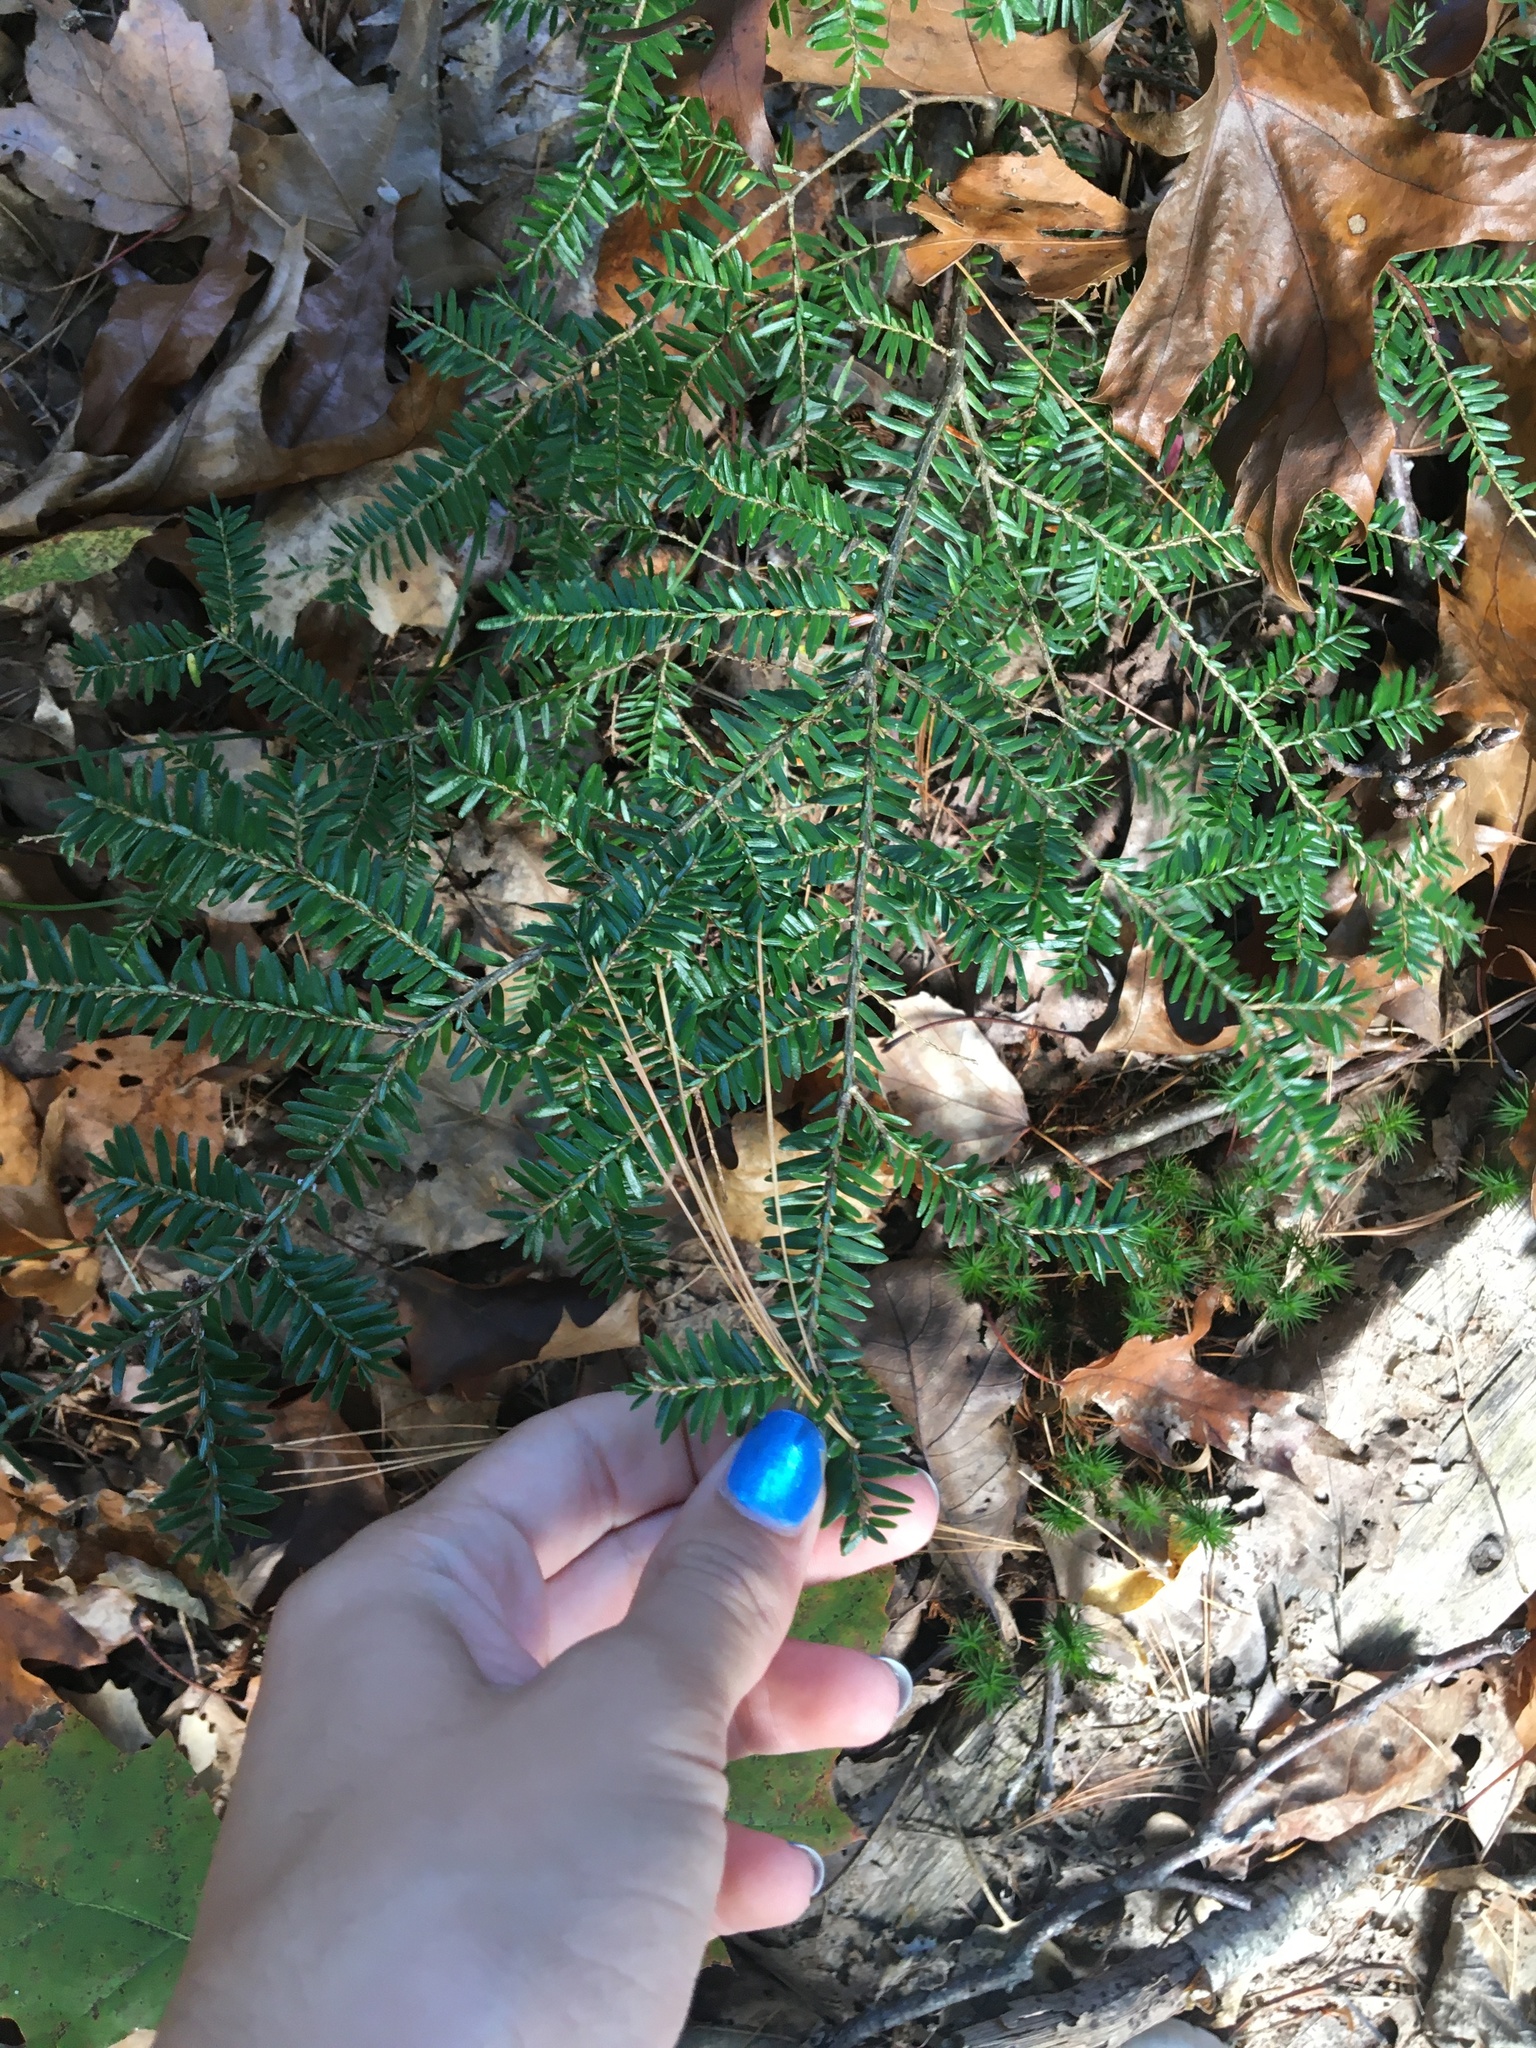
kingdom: Plantae
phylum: Tracheophyta
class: Pinopsida
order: Pinales
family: Pinaceae
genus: Tsuga
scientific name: Tsuga canadensis
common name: Eastern hemlock
